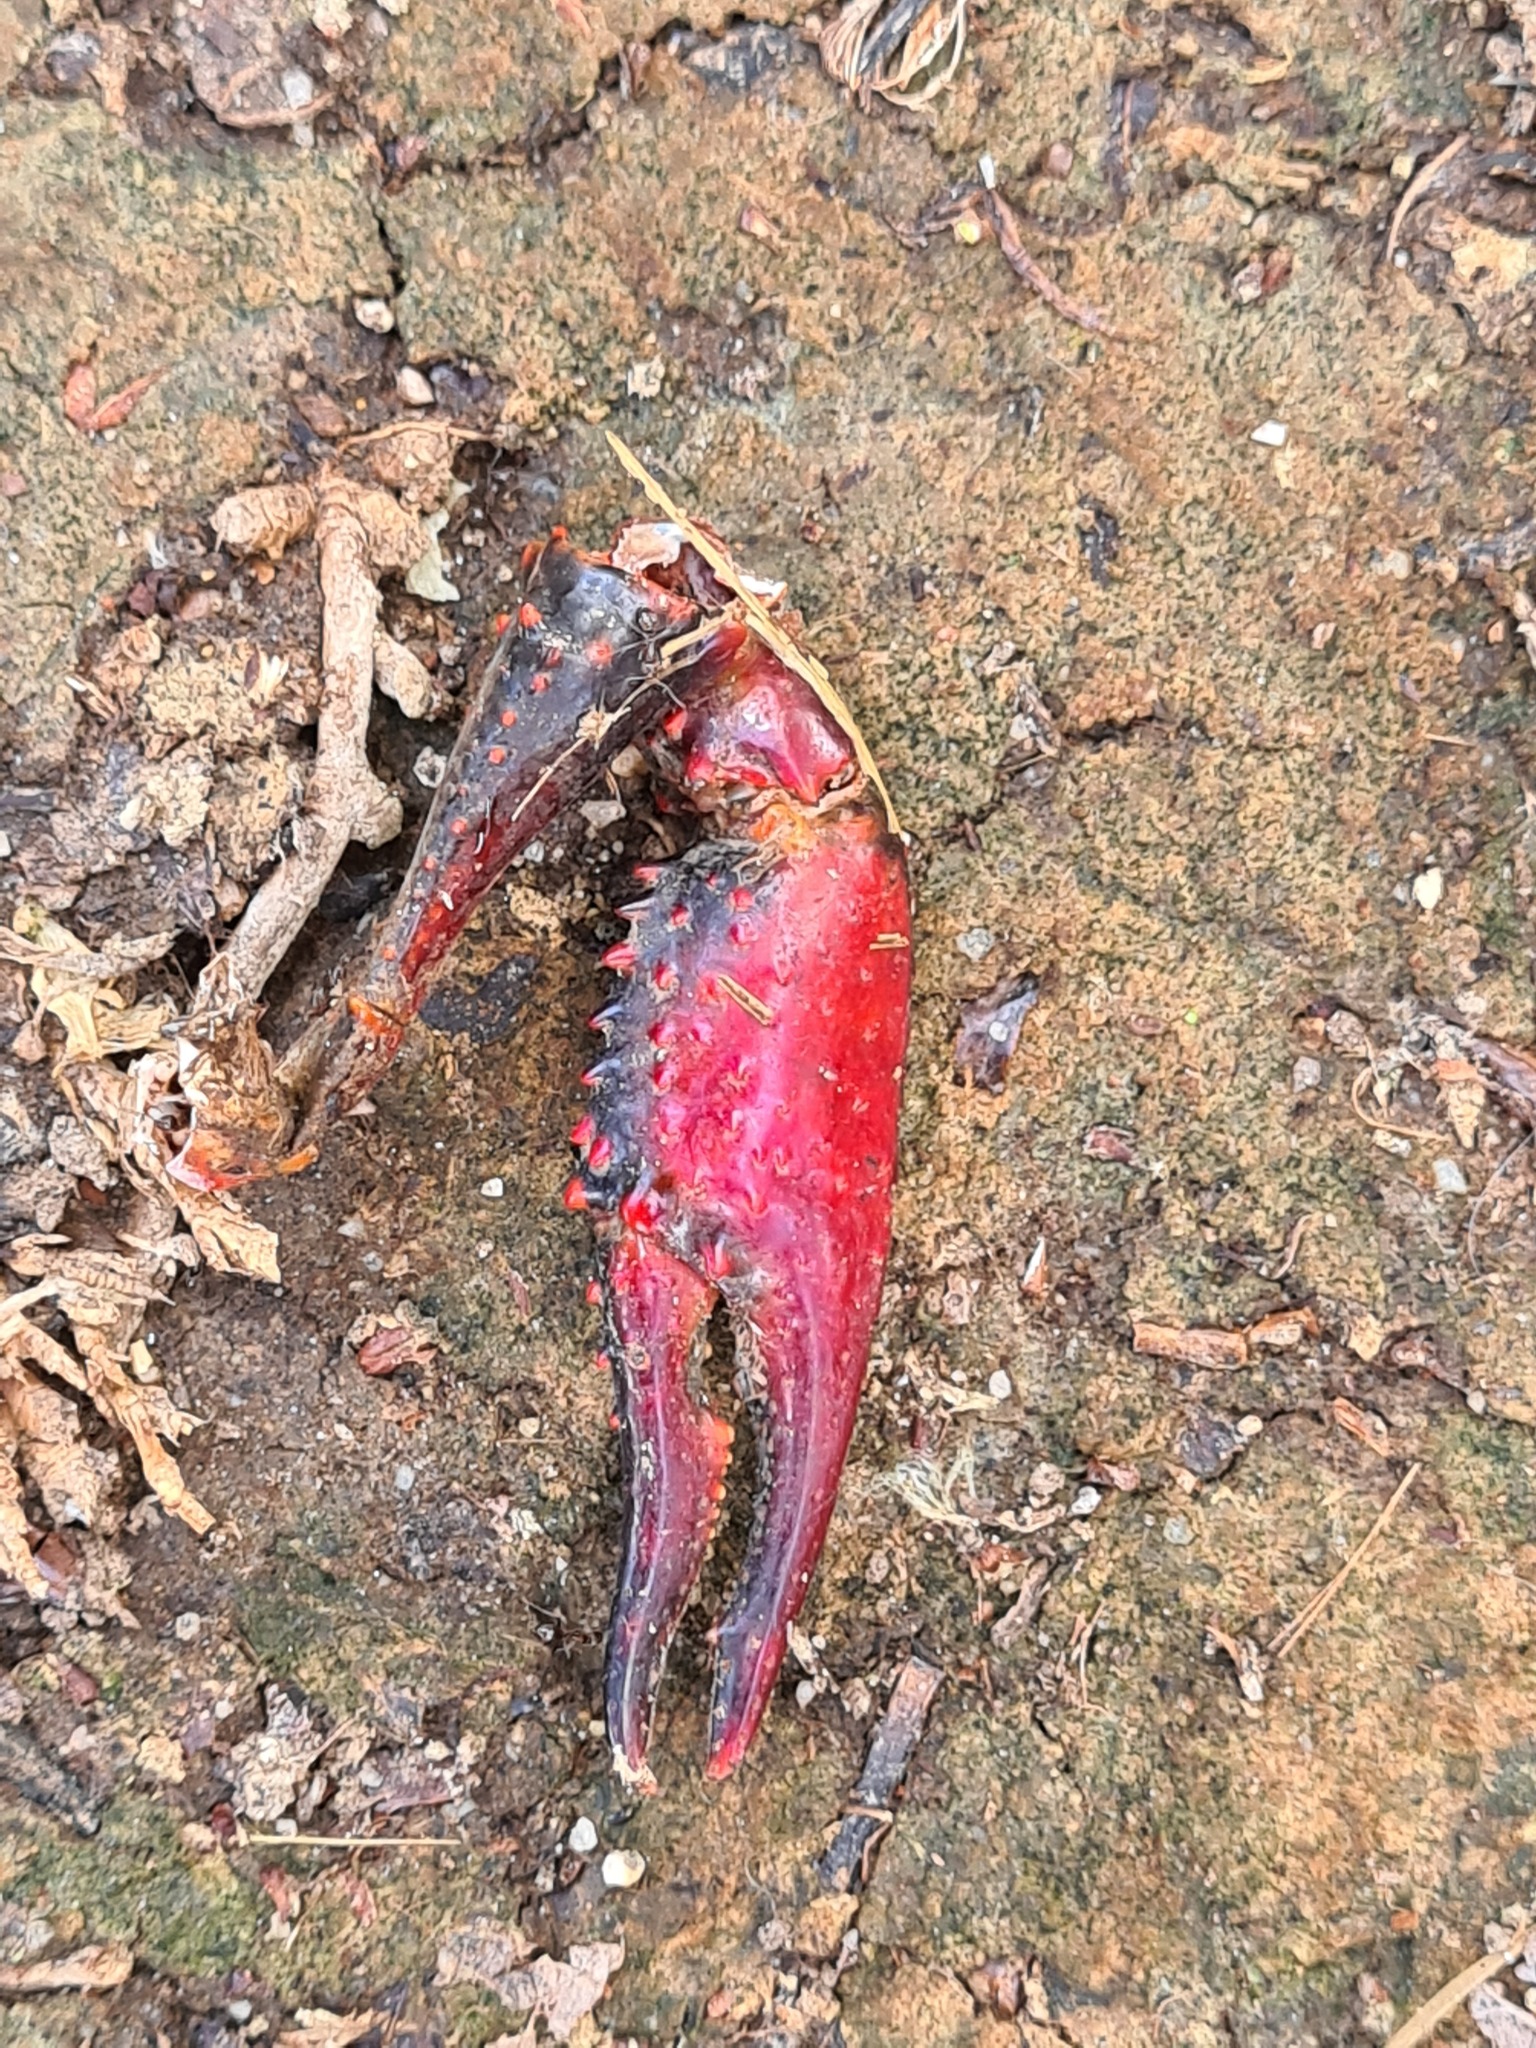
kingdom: Animalia
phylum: Arthropoda
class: Malacostraca
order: Decapoda
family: Cambaridae
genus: Procambarus
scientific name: Procambarus clarkii
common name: Red swamp crayfish
